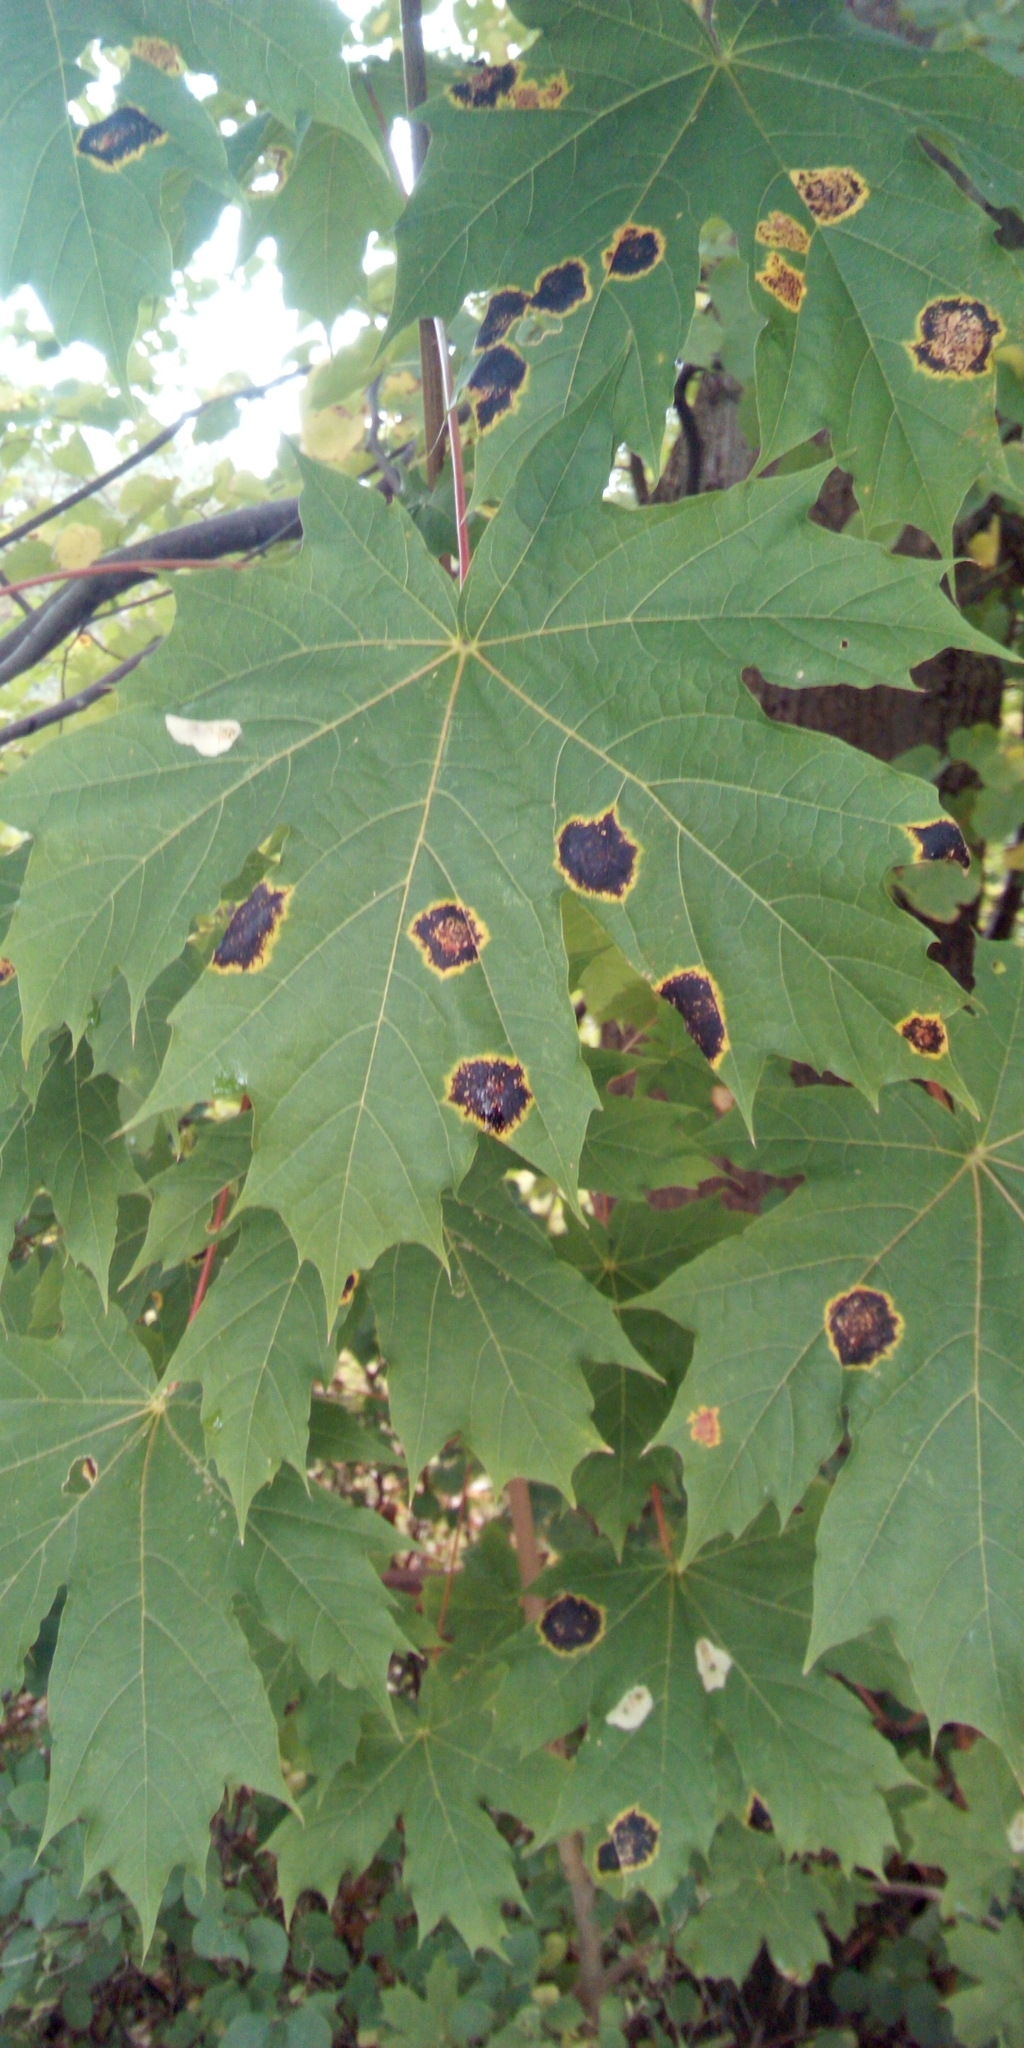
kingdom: Fungi
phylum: Ascomycota
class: Leotiomycetes
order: Rhytismatales
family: Rhytismataceae
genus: Rhytisma
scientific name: Rhytisma acerinum
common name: European tar spot
